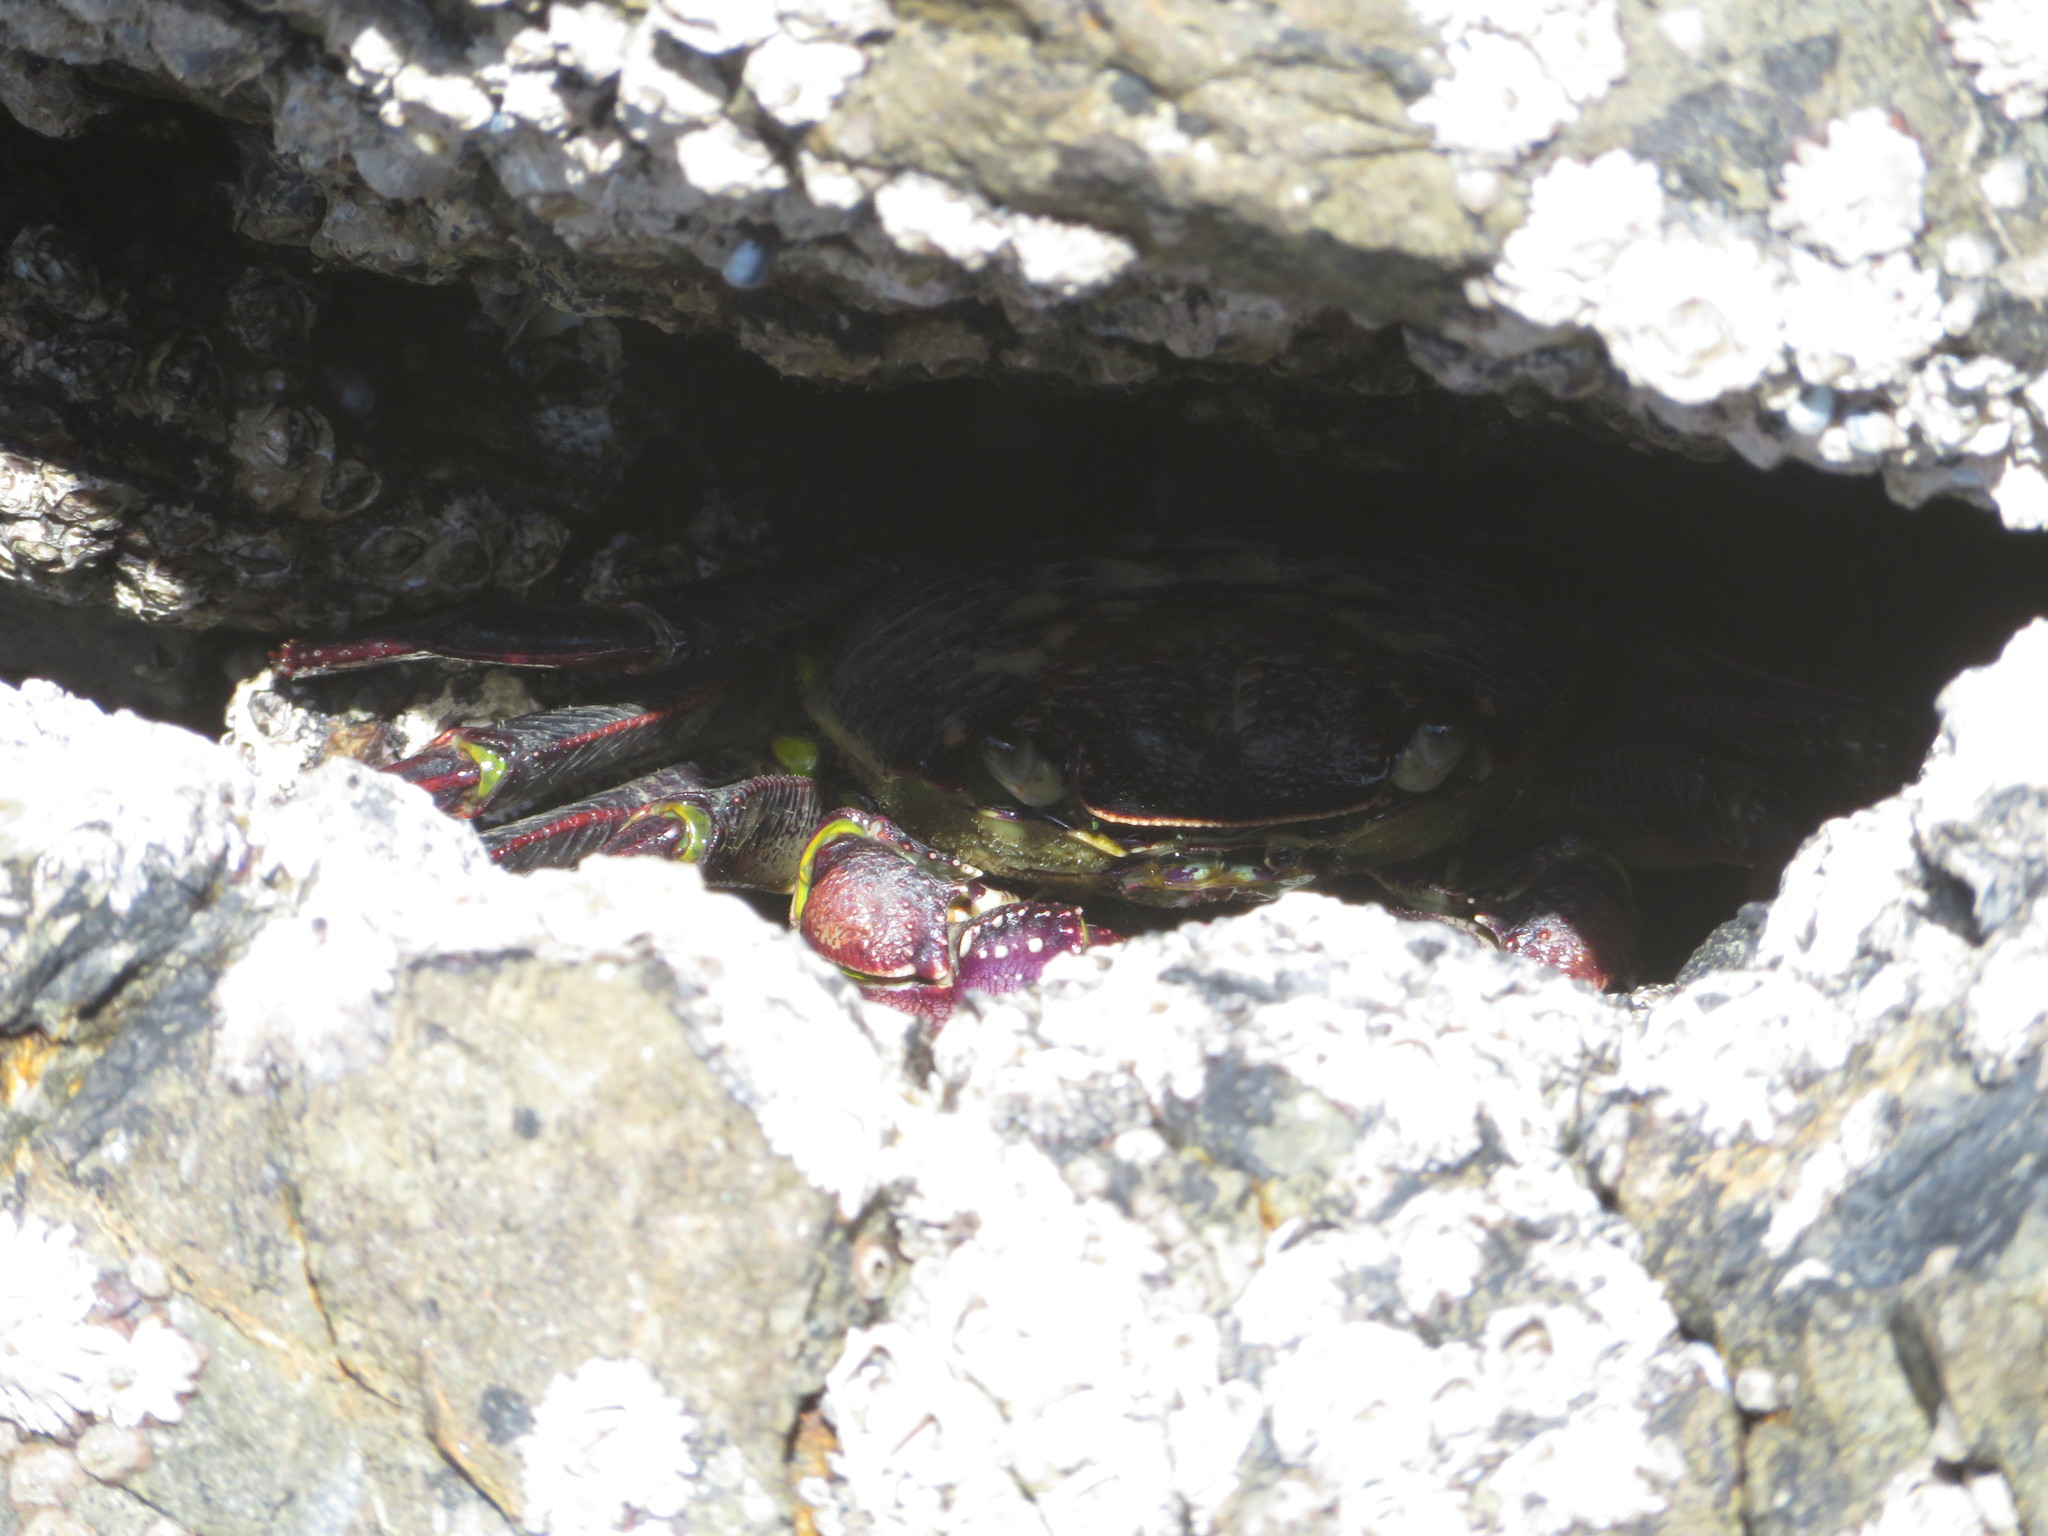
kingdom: Animalia
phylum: Arthropoda
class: Malacostraca
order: Decapoda
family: Grapsidae
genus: Leptograpsus
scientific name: Leptograpsus variegatus
